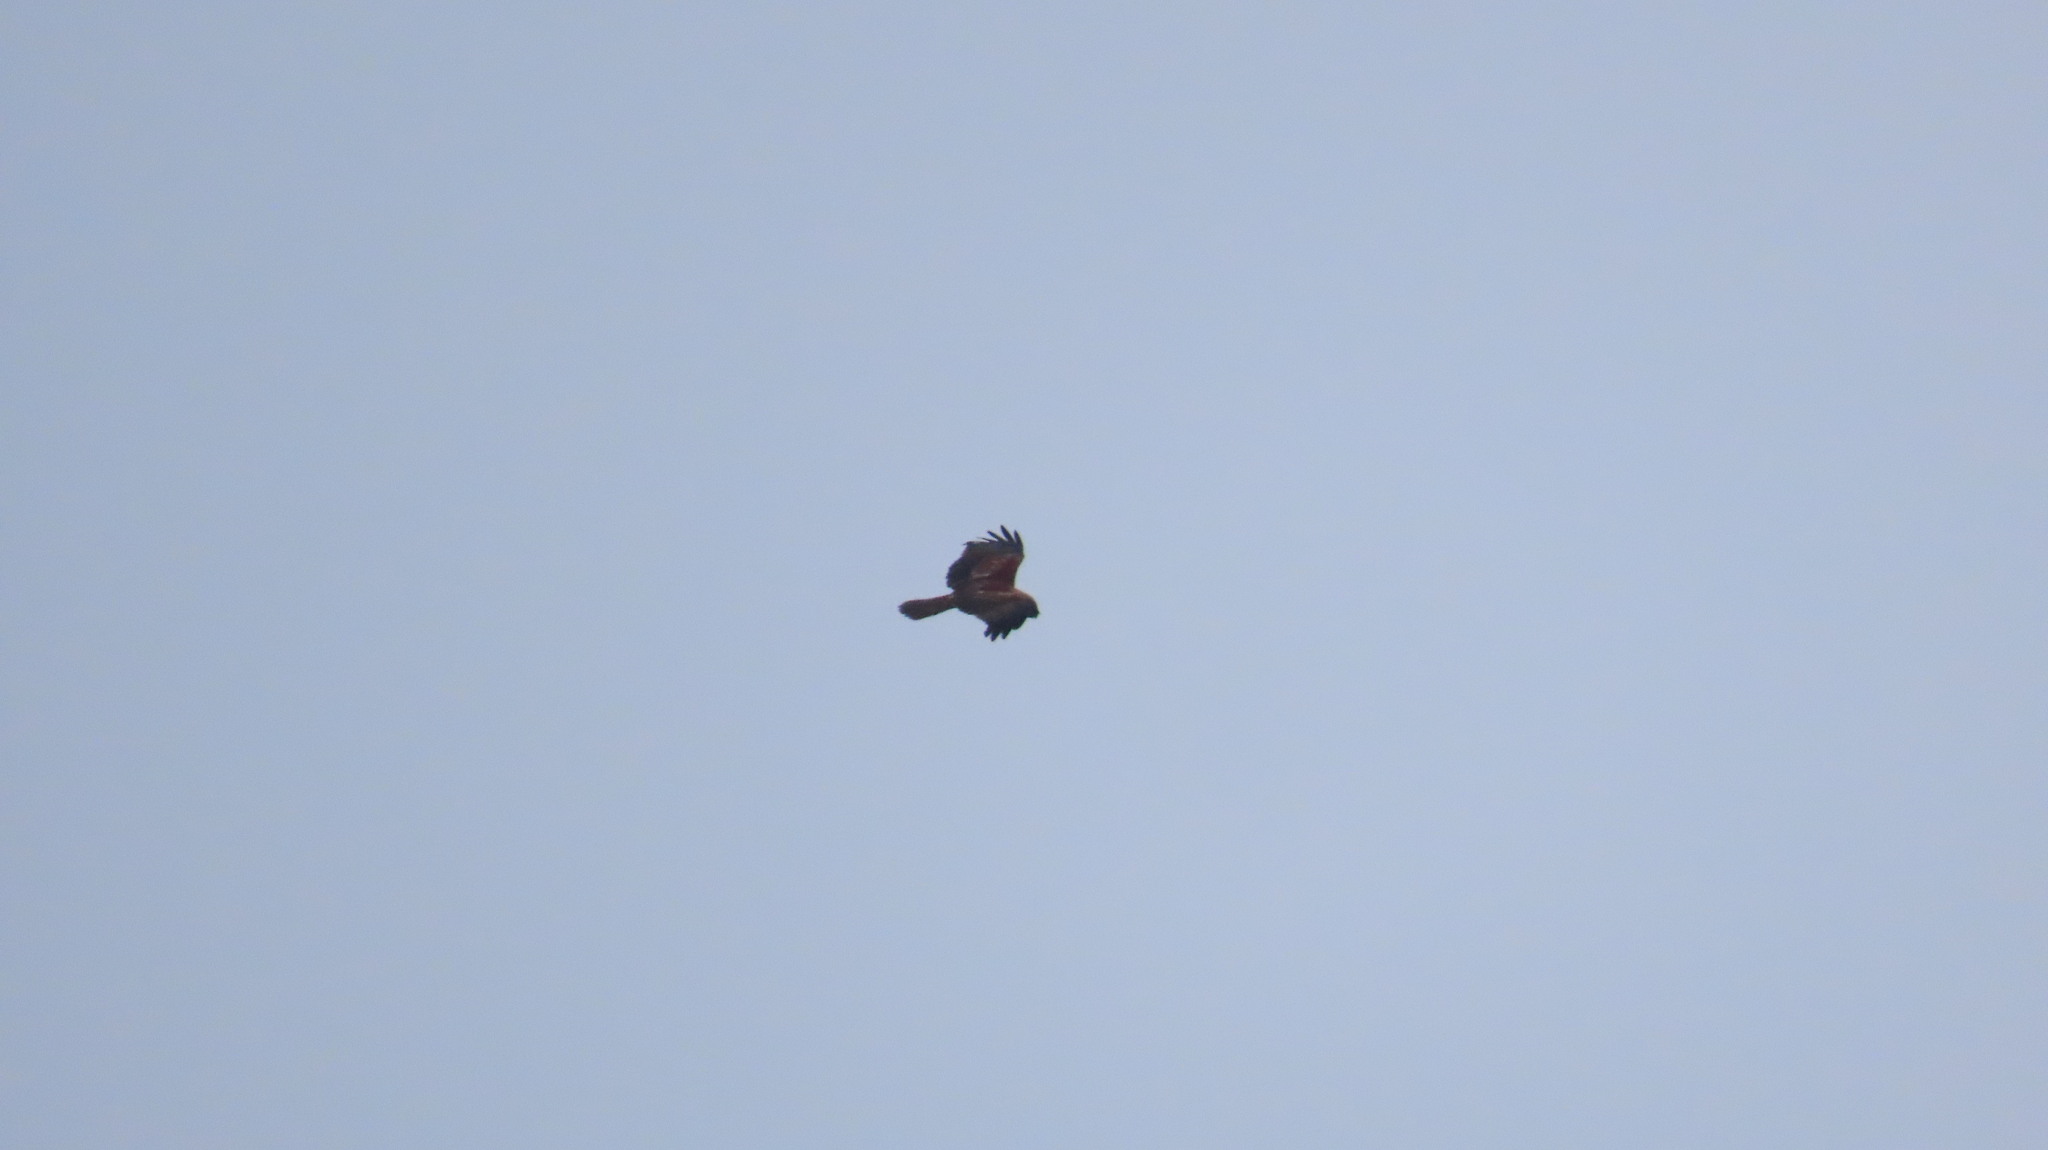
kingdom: Animalia
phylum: Chordata
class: Aves
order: Accipitriformes
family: Accipitridae
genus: Haliastur
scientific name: Haliastur indus
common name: Brahminy kite
